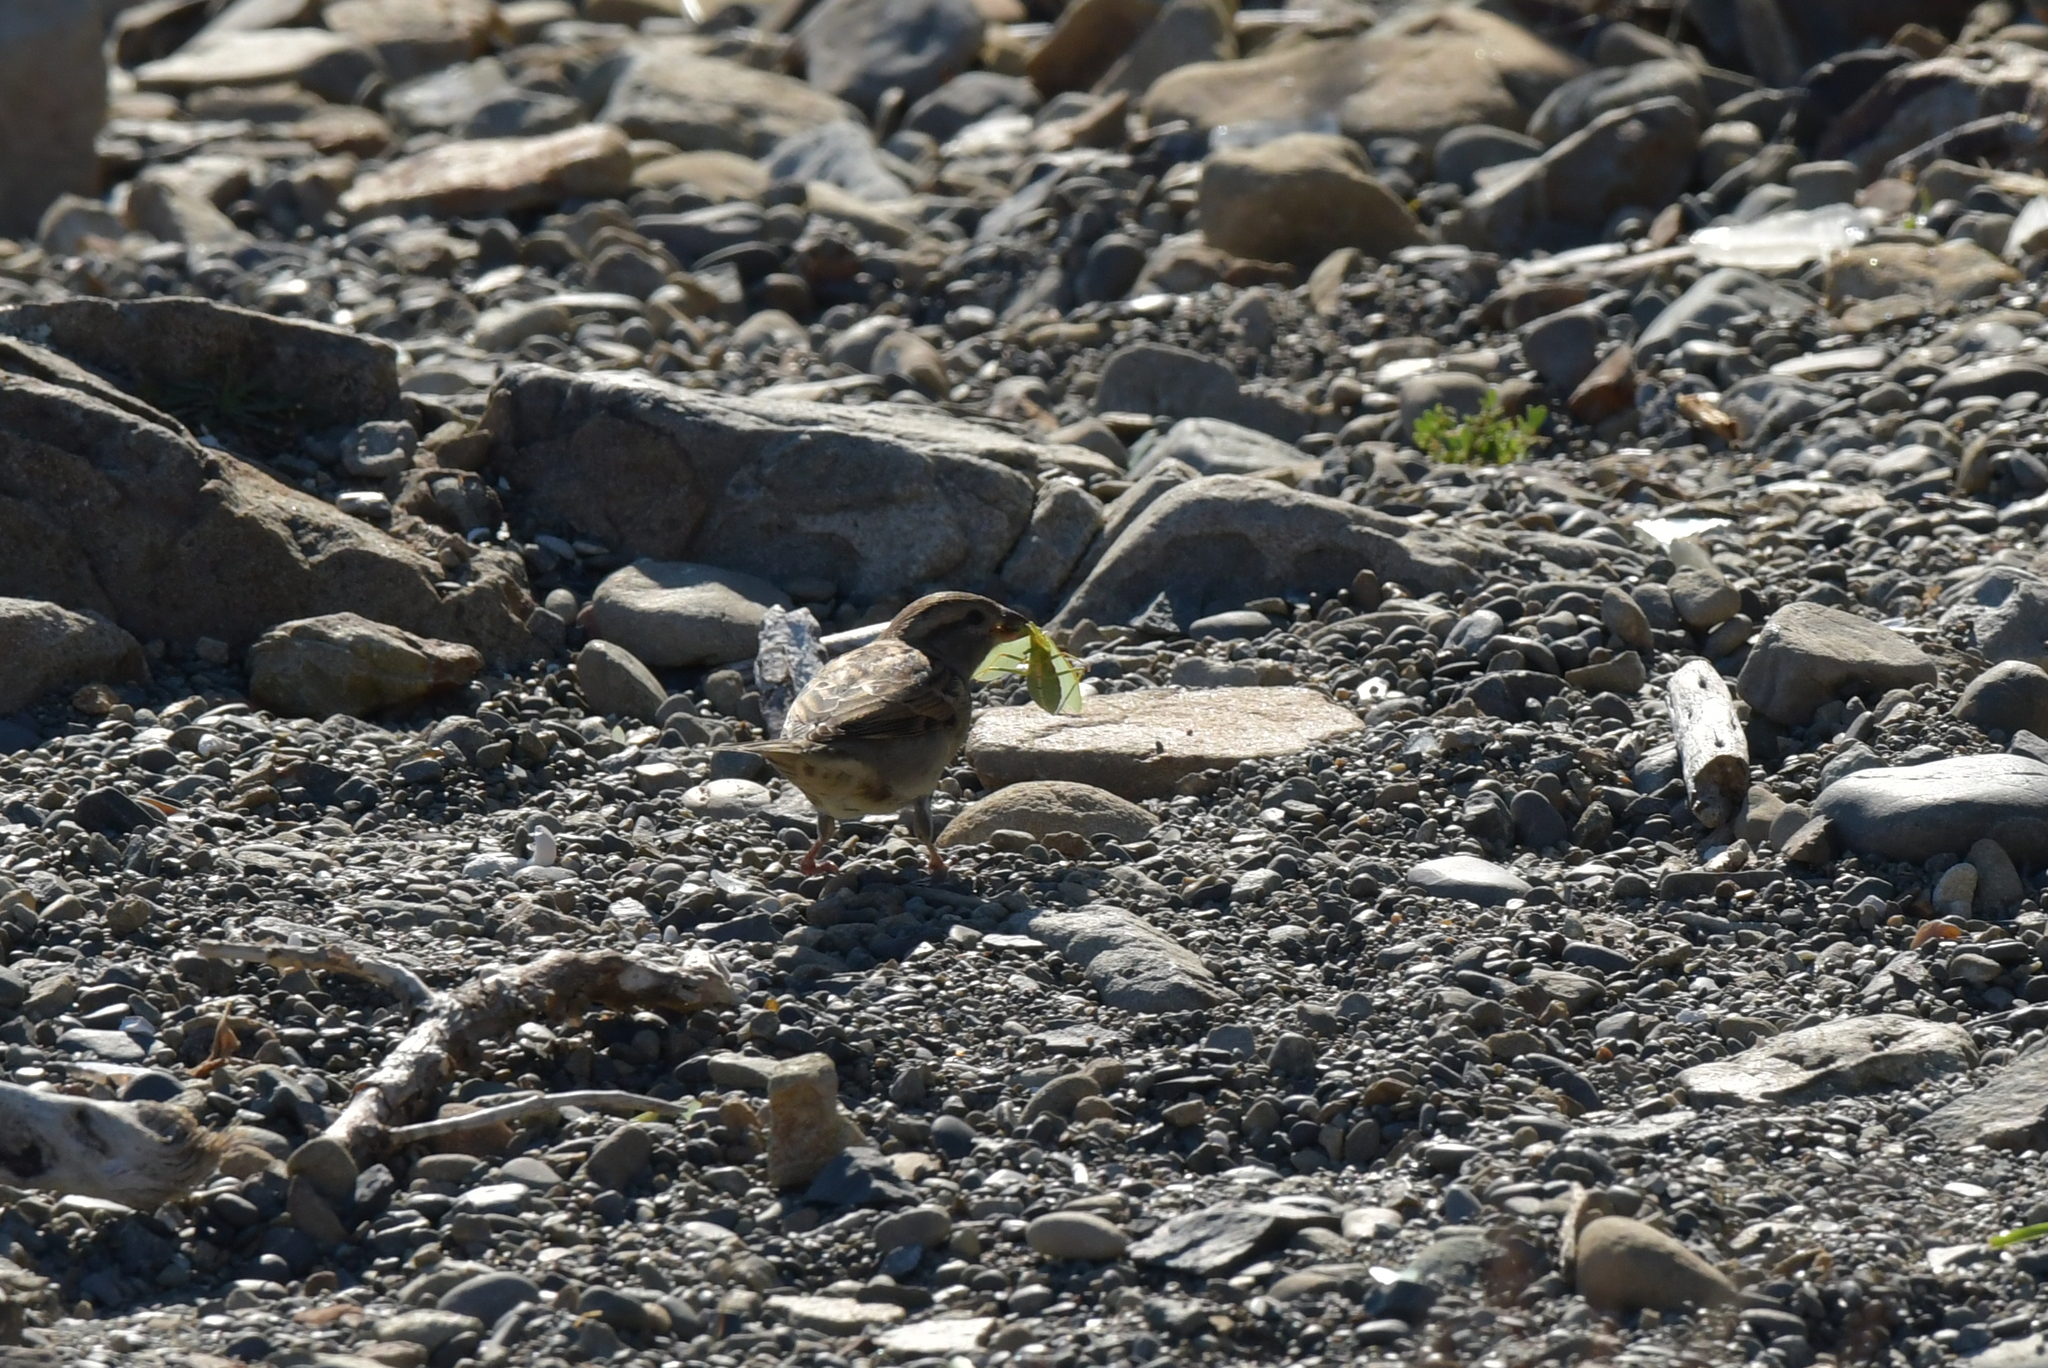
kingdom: Animalia
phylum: Arthropoda
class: Insecta
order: Mantodea
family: Mantidae
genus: Orthodera
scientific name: Orthodera novaezealandiae
